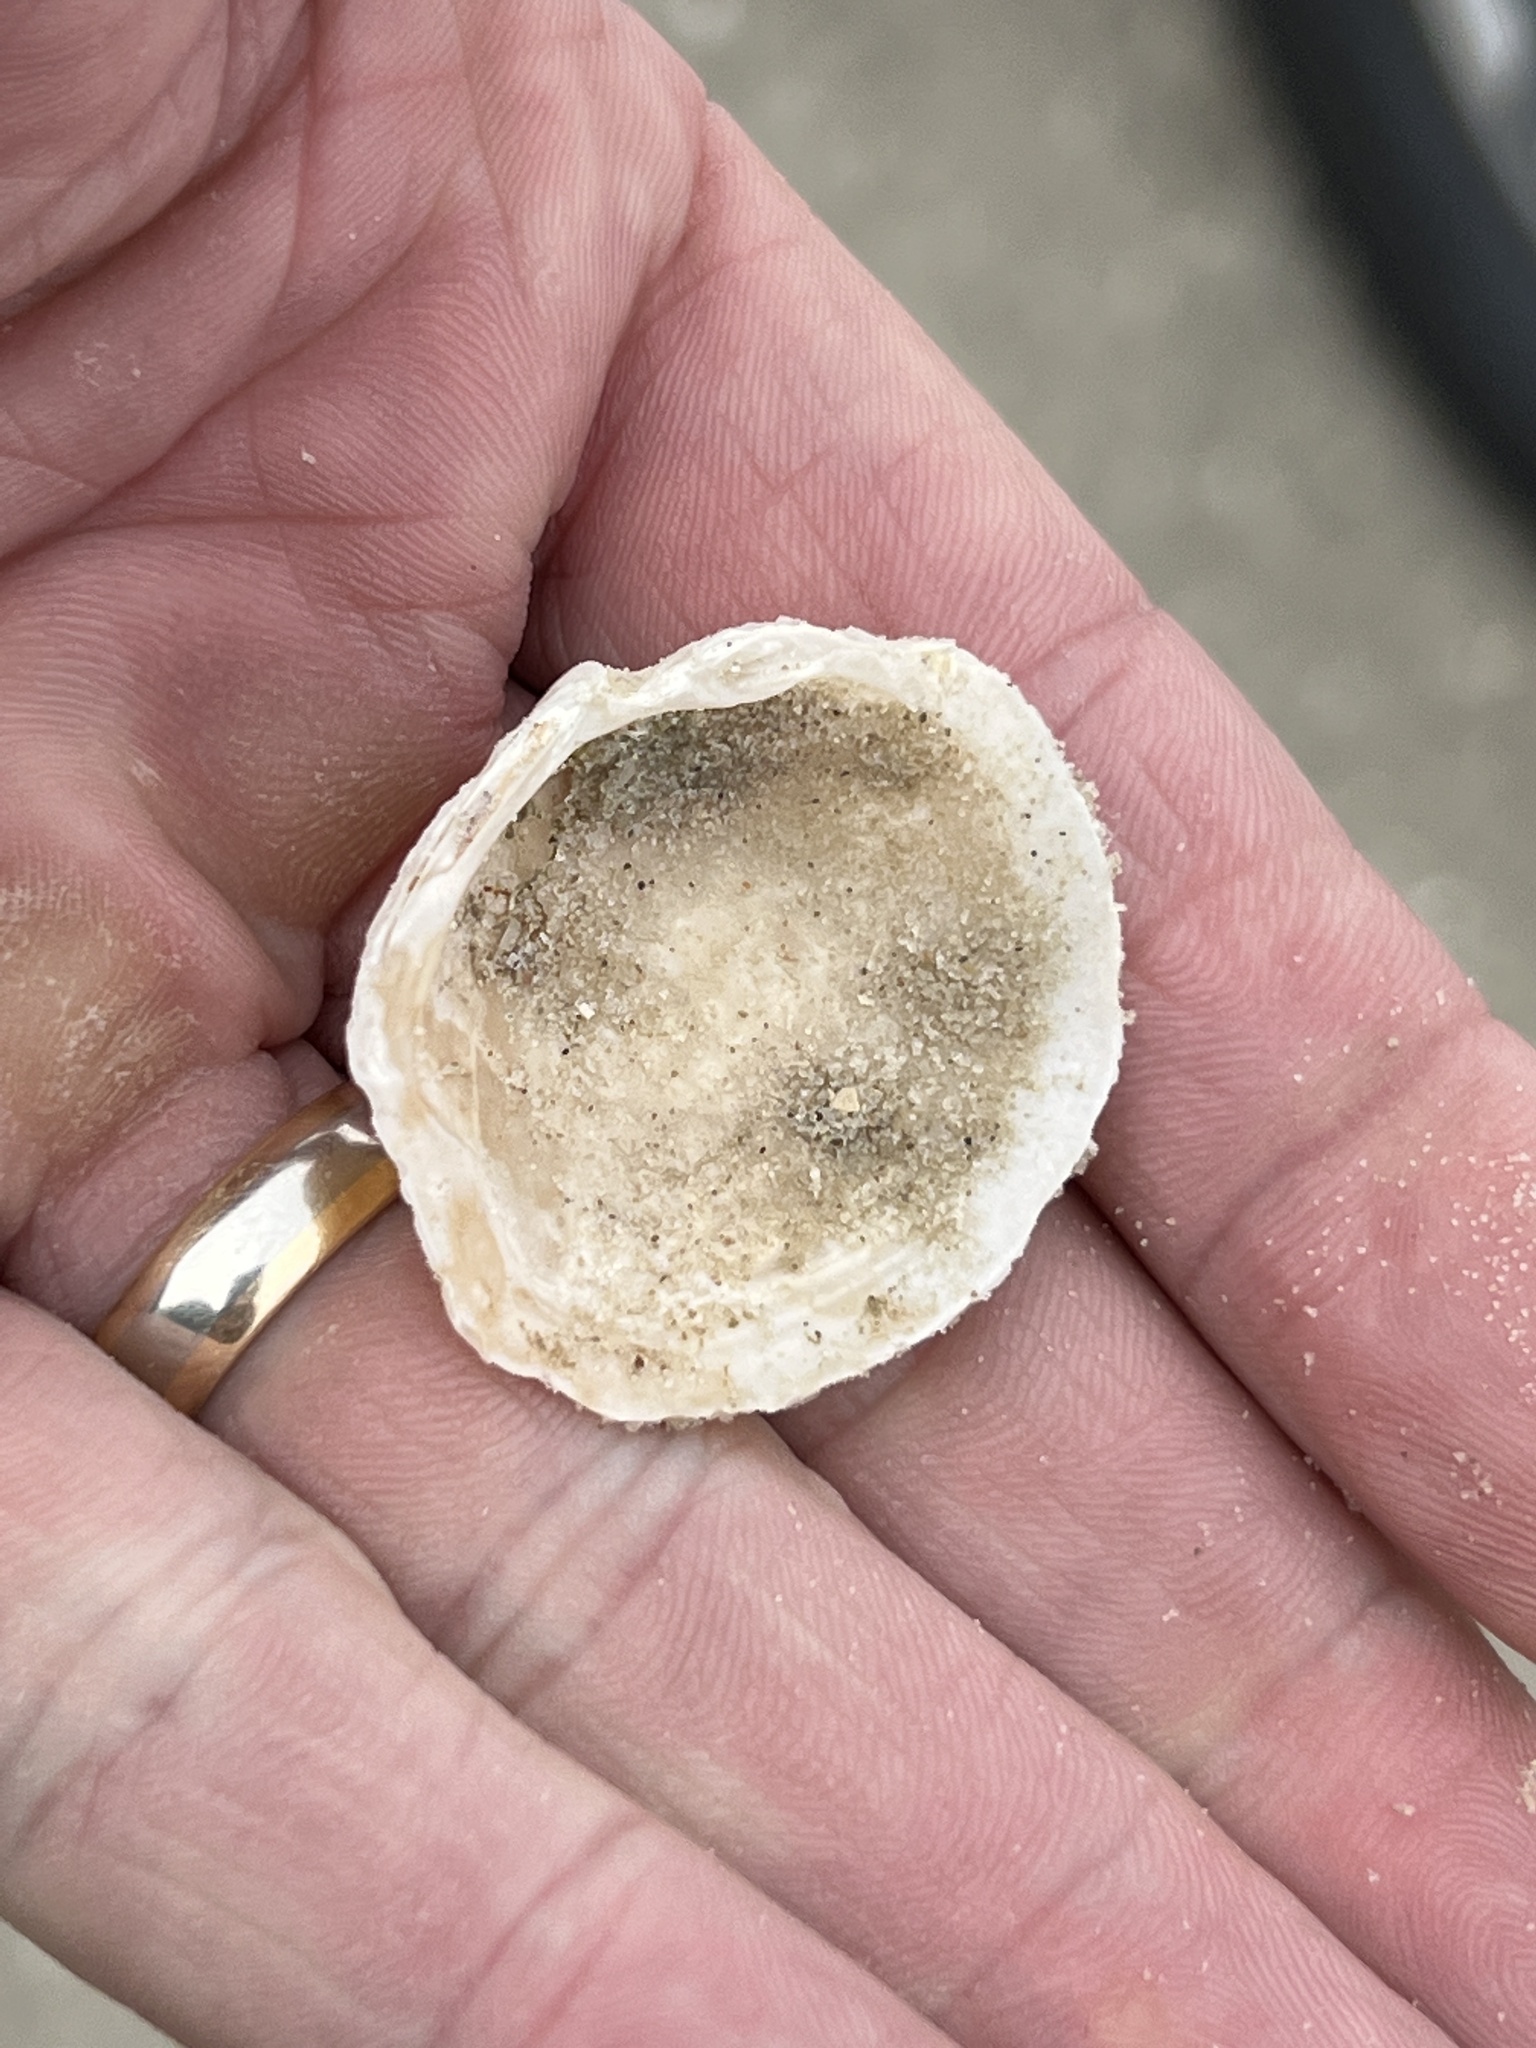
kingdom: Animalia
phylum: Mollusca
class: Bivalvia
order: Lucinida
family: Lucinidae
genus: Phacoides
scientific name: Phacoides pectinatus
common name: Thick lucine
